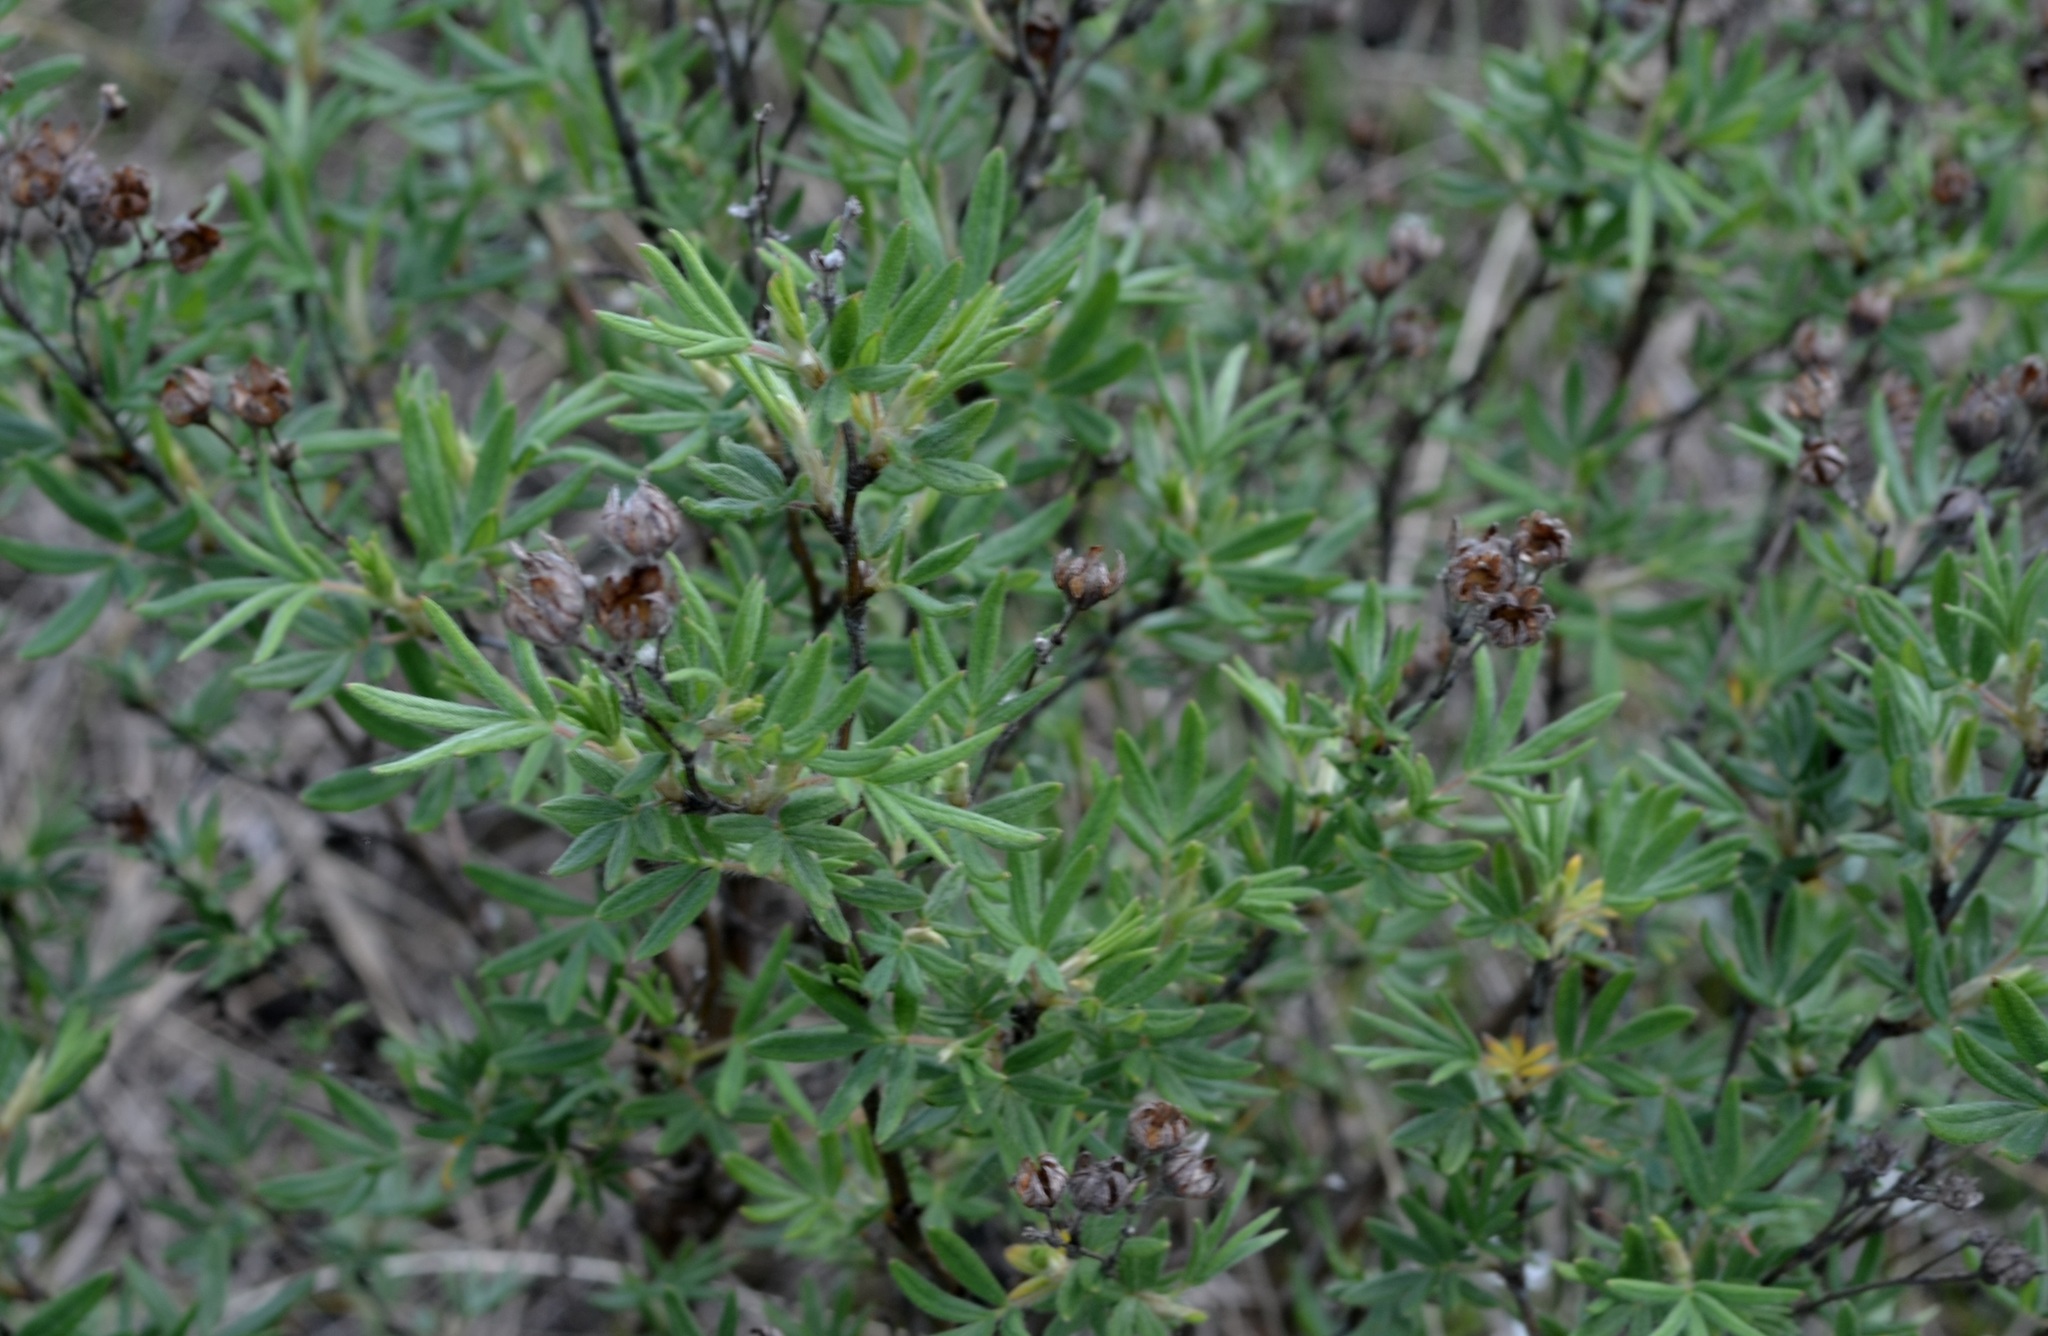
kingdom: Plantae
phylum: Tracheophyta
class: Magnoliopsida
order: Rosales
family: Rosaceae
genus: Dasiphora
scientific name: Dasiphora fruticosa
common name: Shrubby cinquefoil
